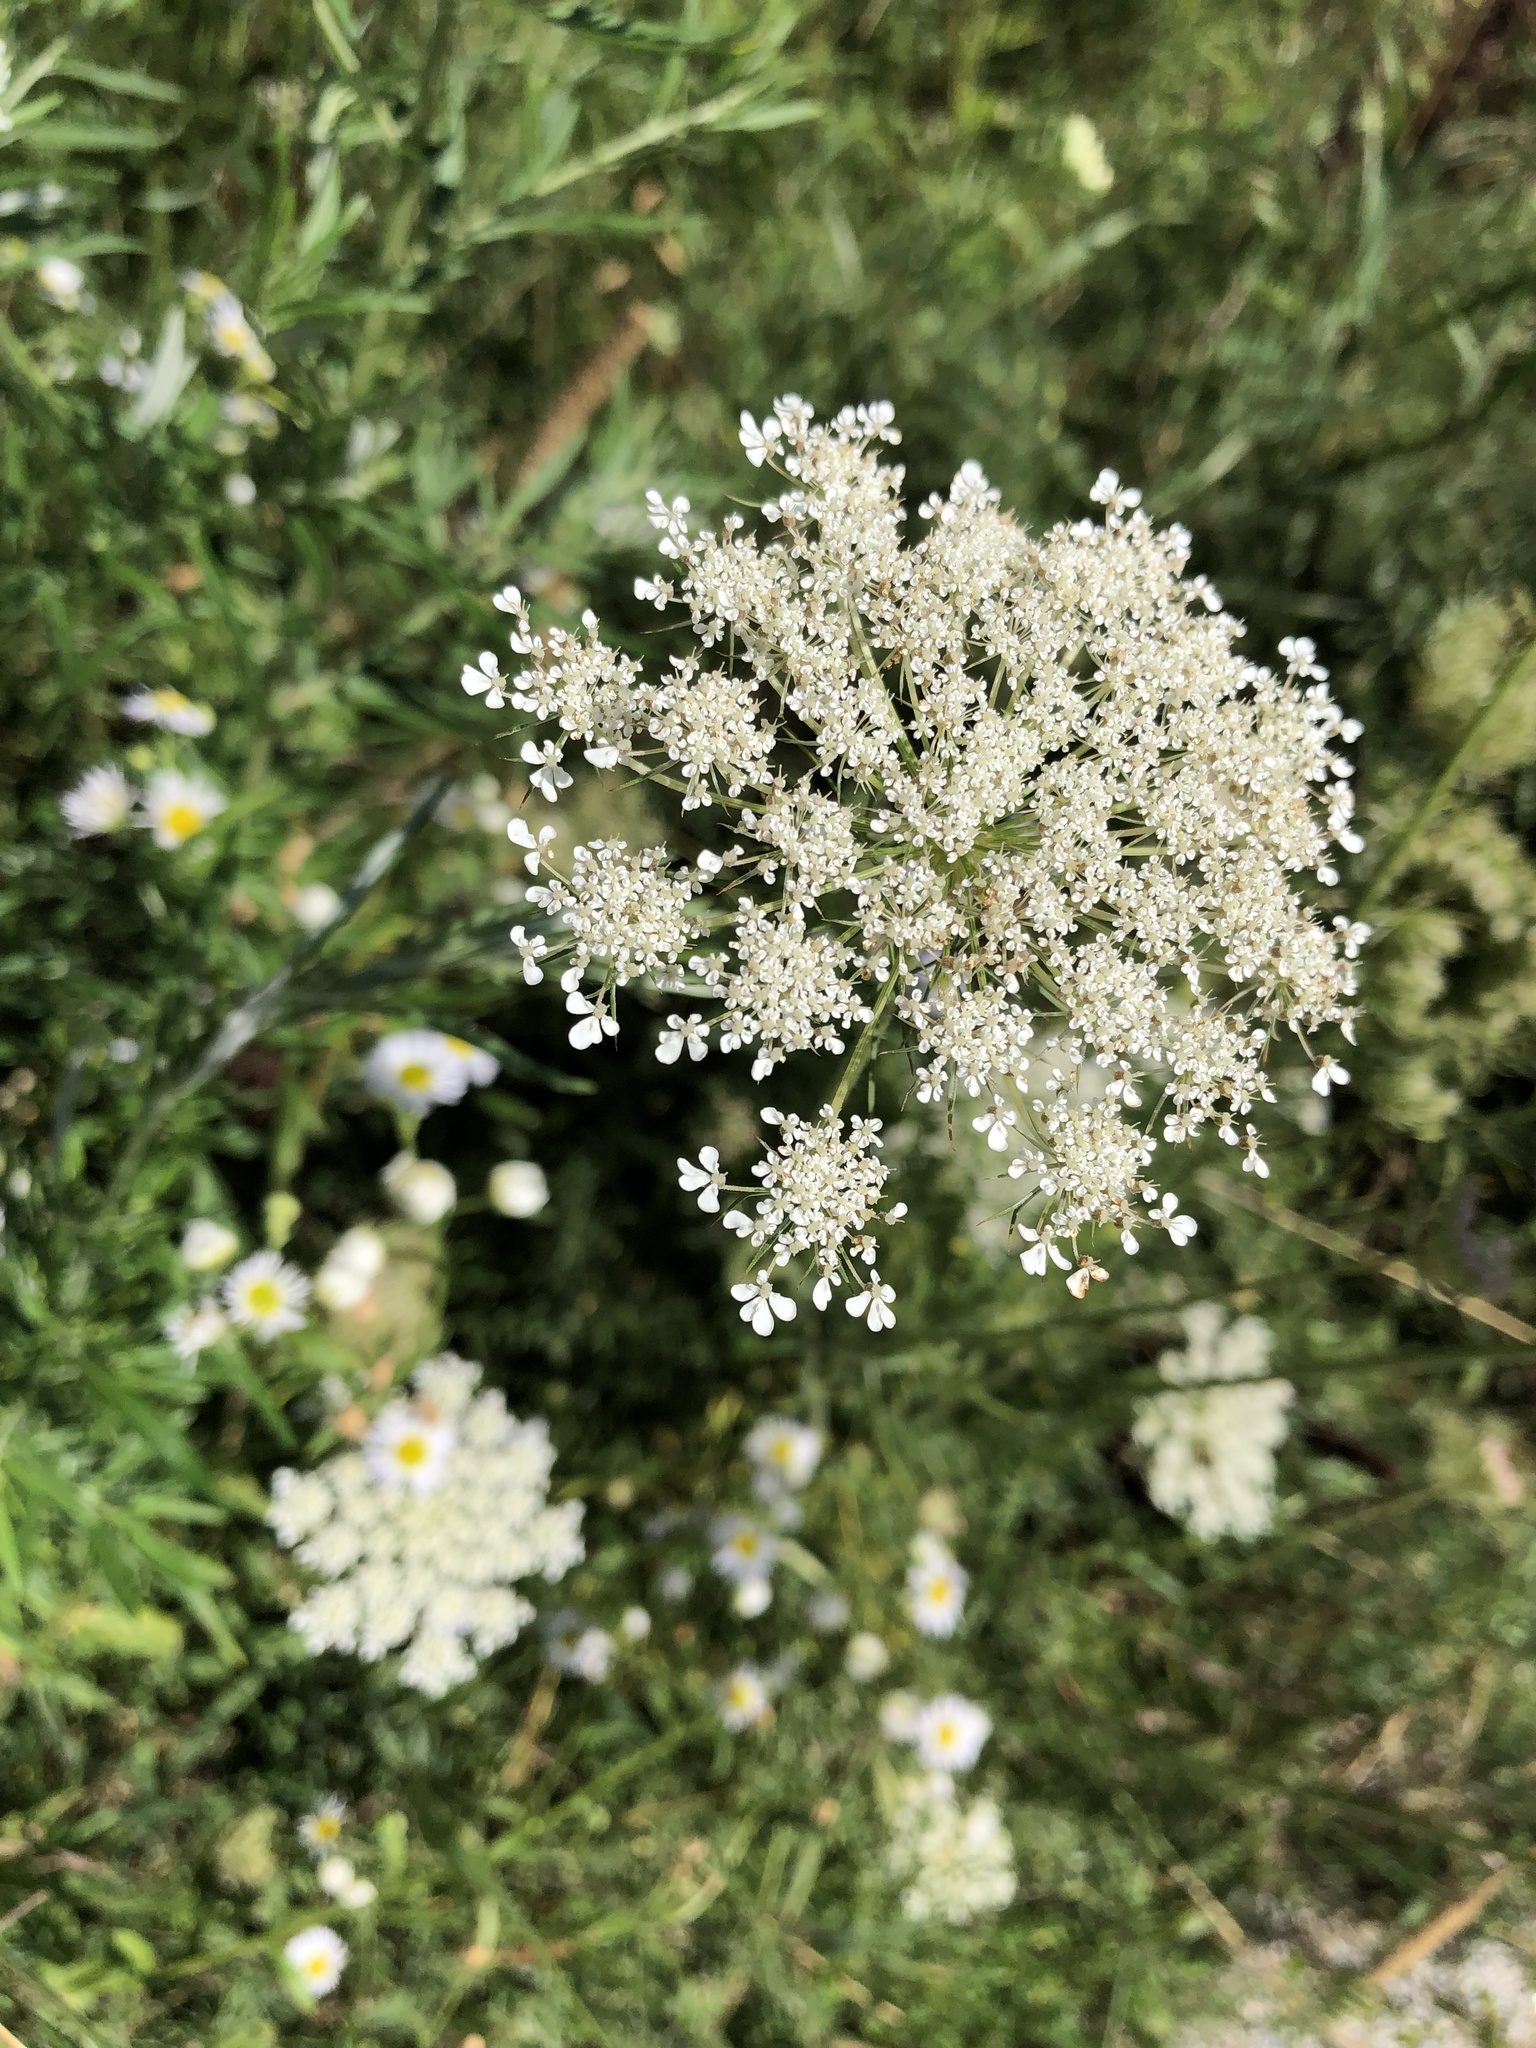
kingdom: Plantae
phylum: Tracheophyta
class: Magnoliopsida
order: Apiales
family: Apiaceae
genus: Daucus
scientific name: Daucus carota
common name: Wild carrot
